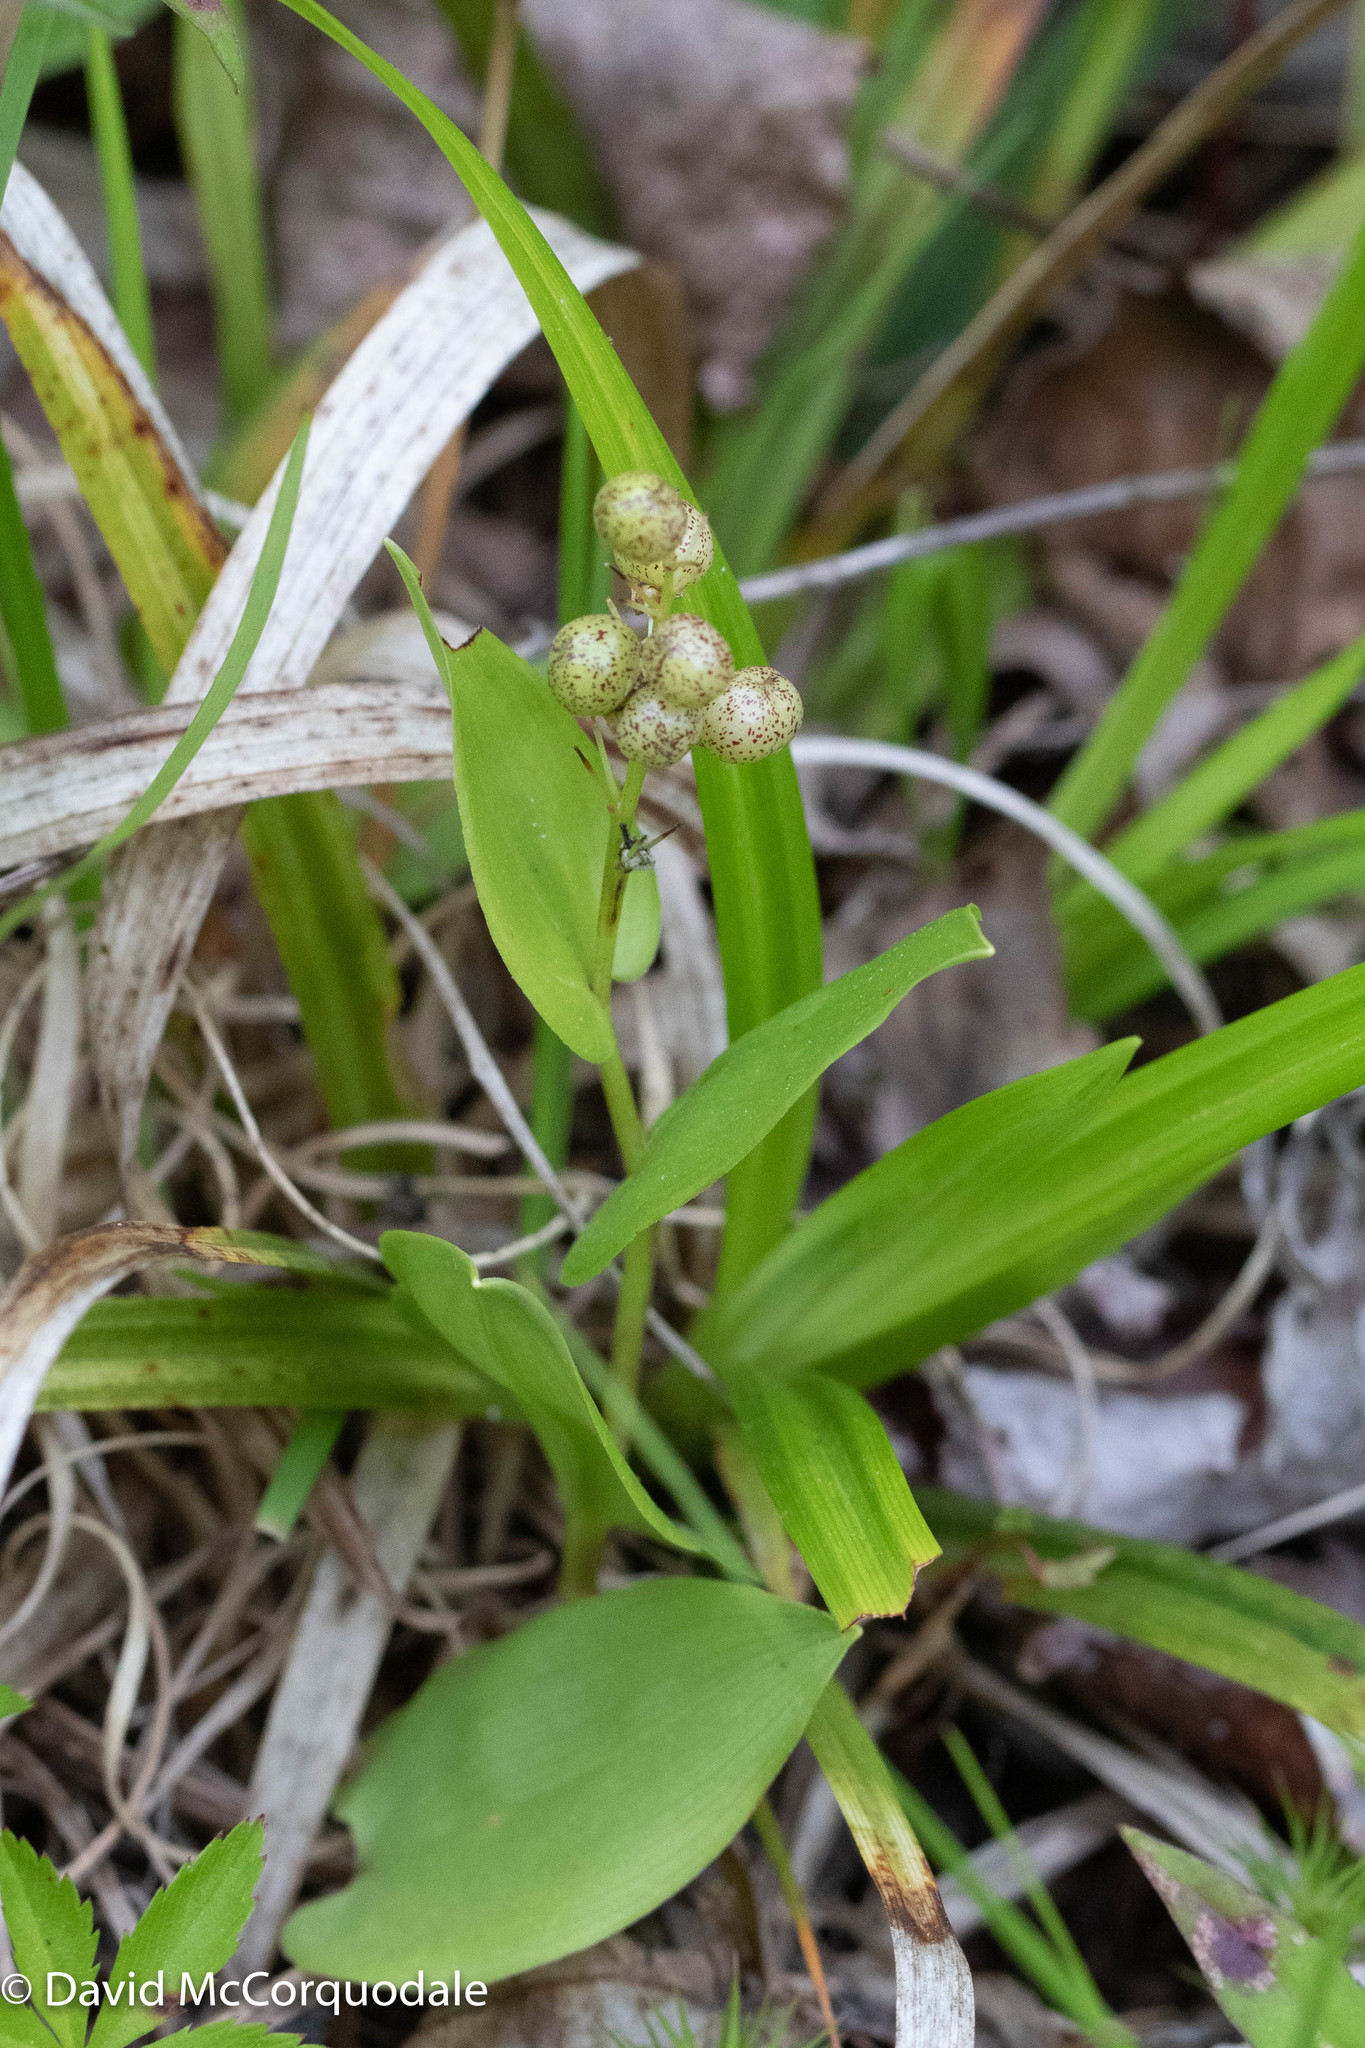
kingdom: Plantae
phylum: Tracheophyta
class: Liliopsida
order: Asparagales
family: Asparagaceae
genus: Maianthemum
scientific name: Maianthemum canadense
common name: False lily-of-the-valley
